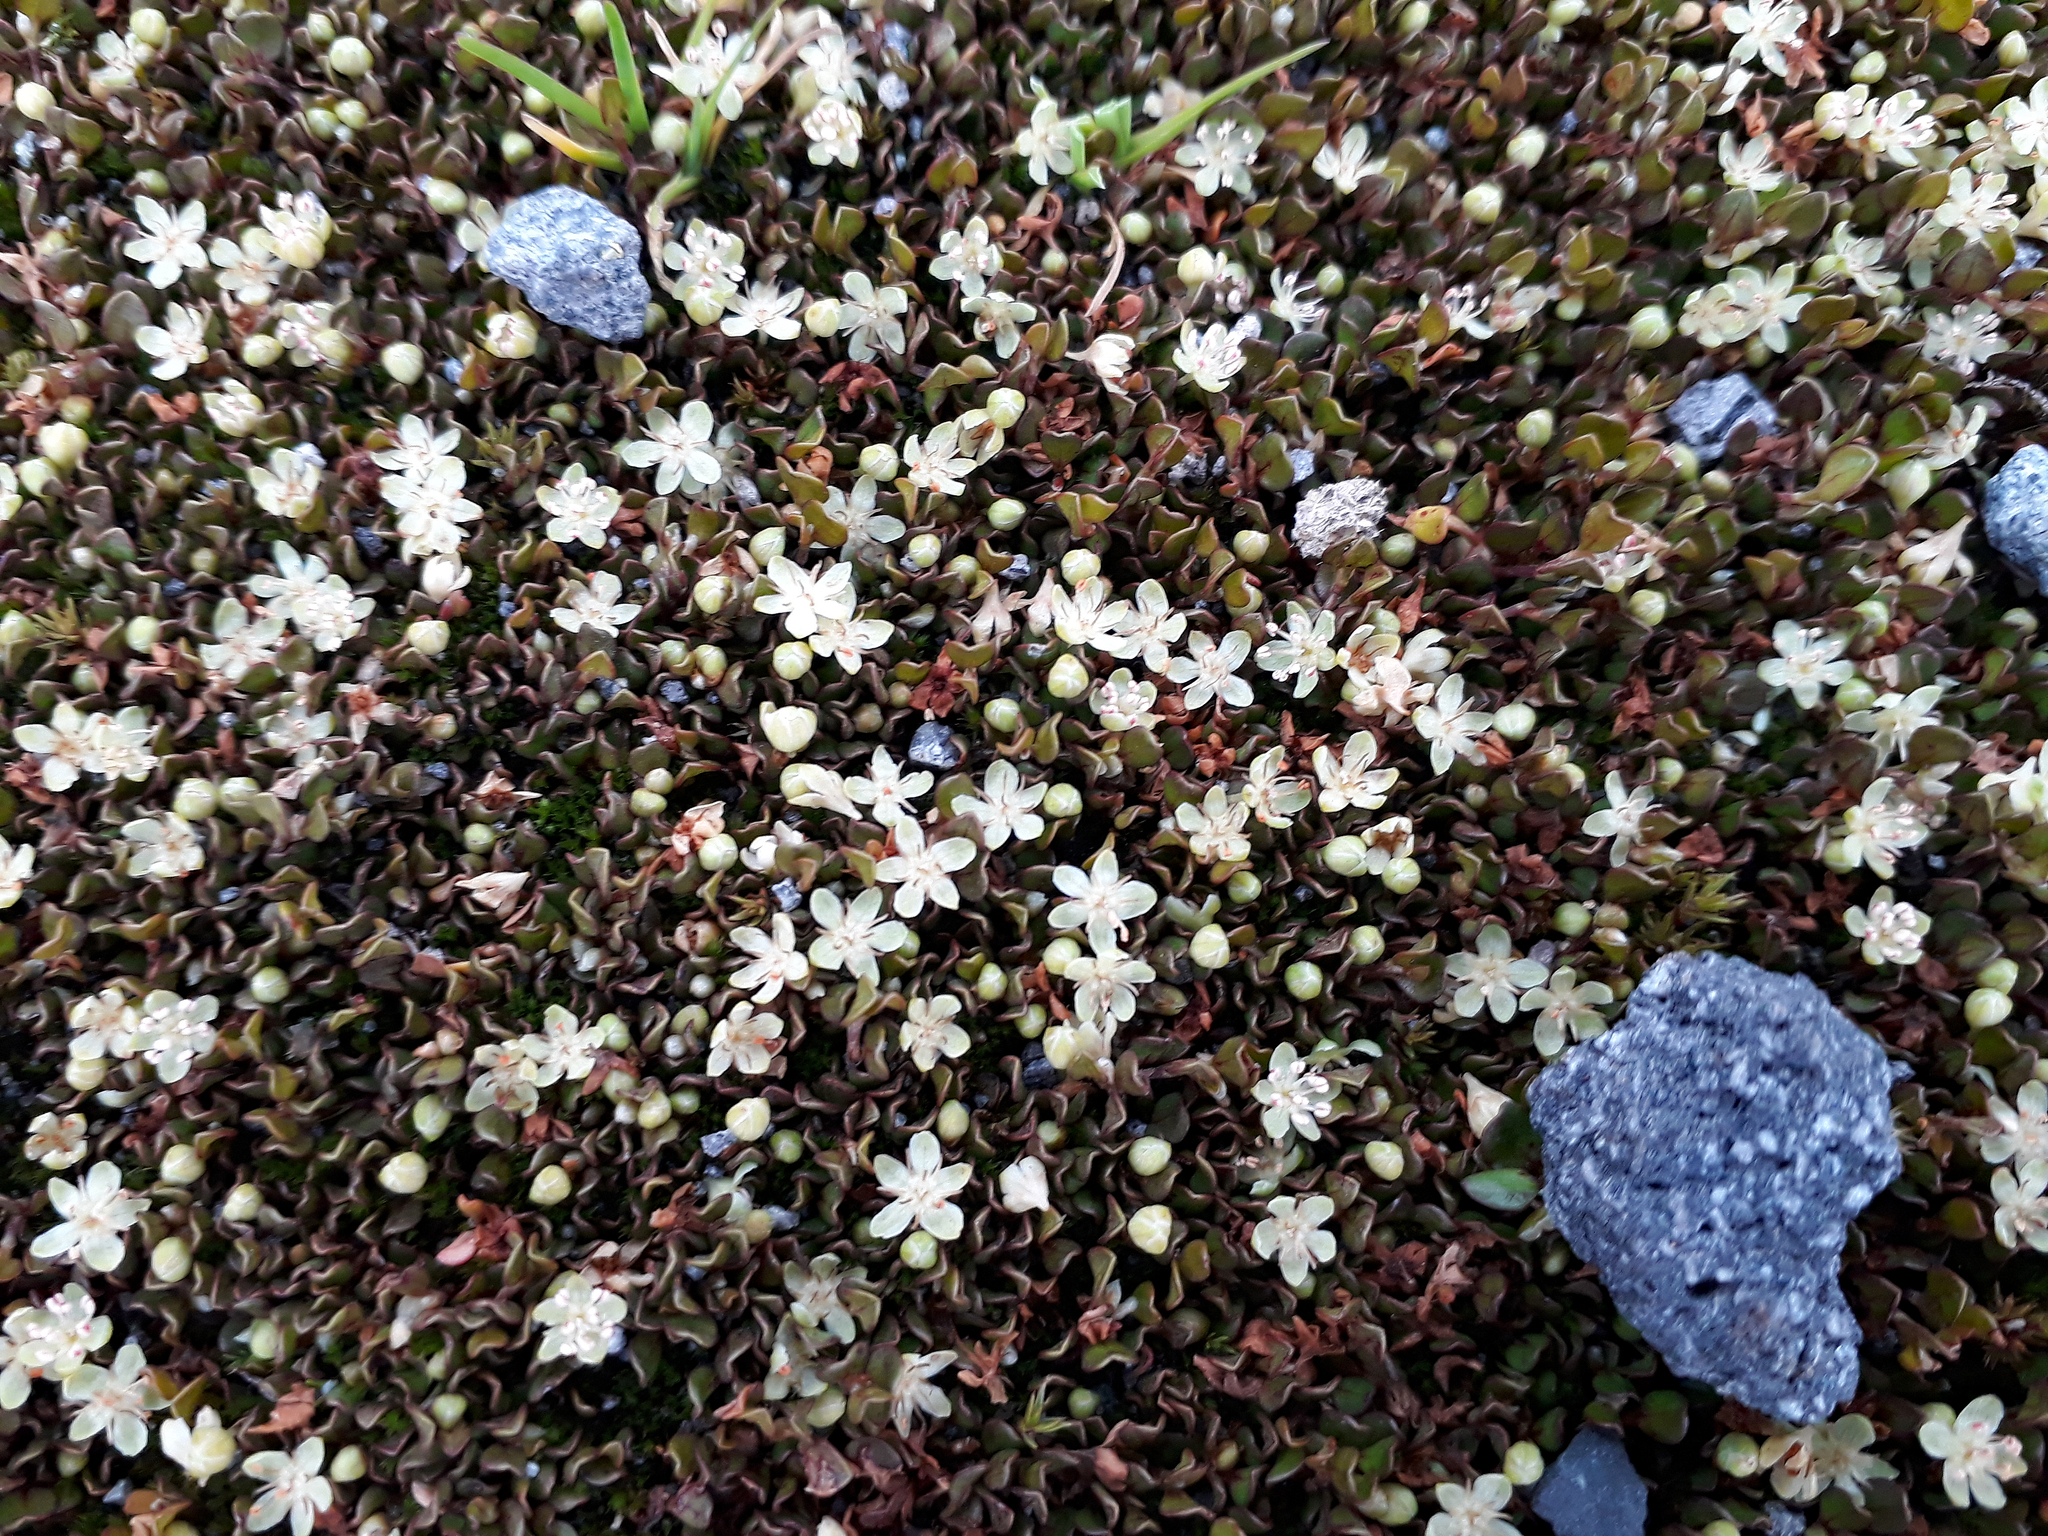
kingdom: Plantae
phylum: Tracheophyta
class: Magnoliopsida
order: Caryophyllales
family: Polygonaceae
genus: Muehlenbeckia
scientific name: Muehlenbeckia axillaris
